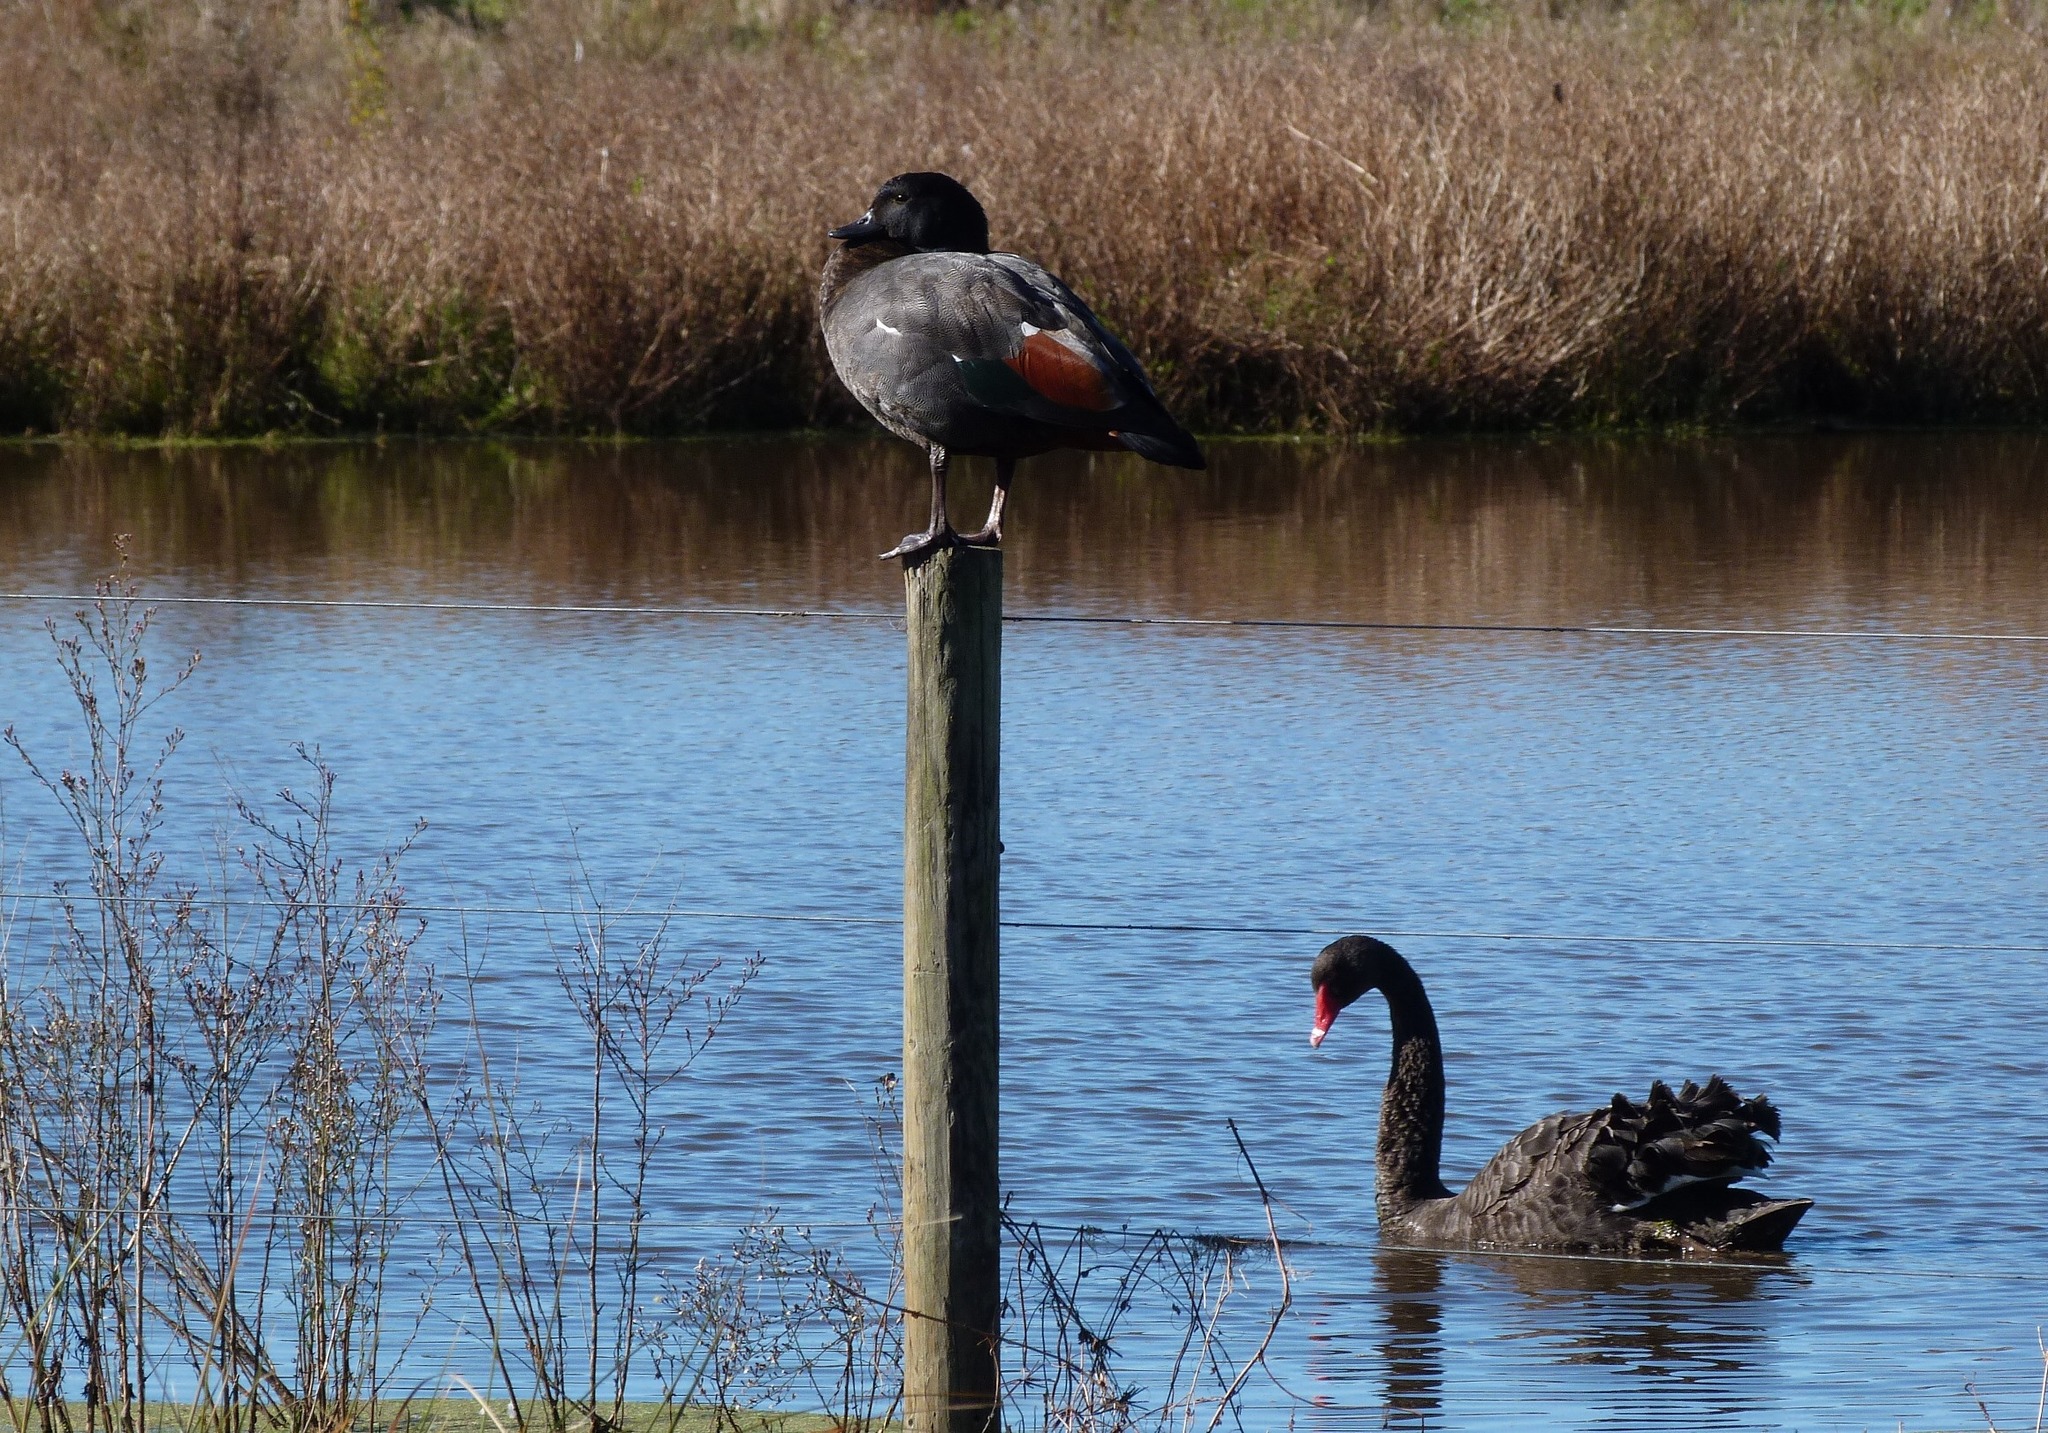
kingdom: Animalia
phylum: Chordata
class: Aves
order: Anseriformes
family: Anatidae
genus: Tadorna
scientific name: Tadorna variegata
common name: Paradise shelduck
